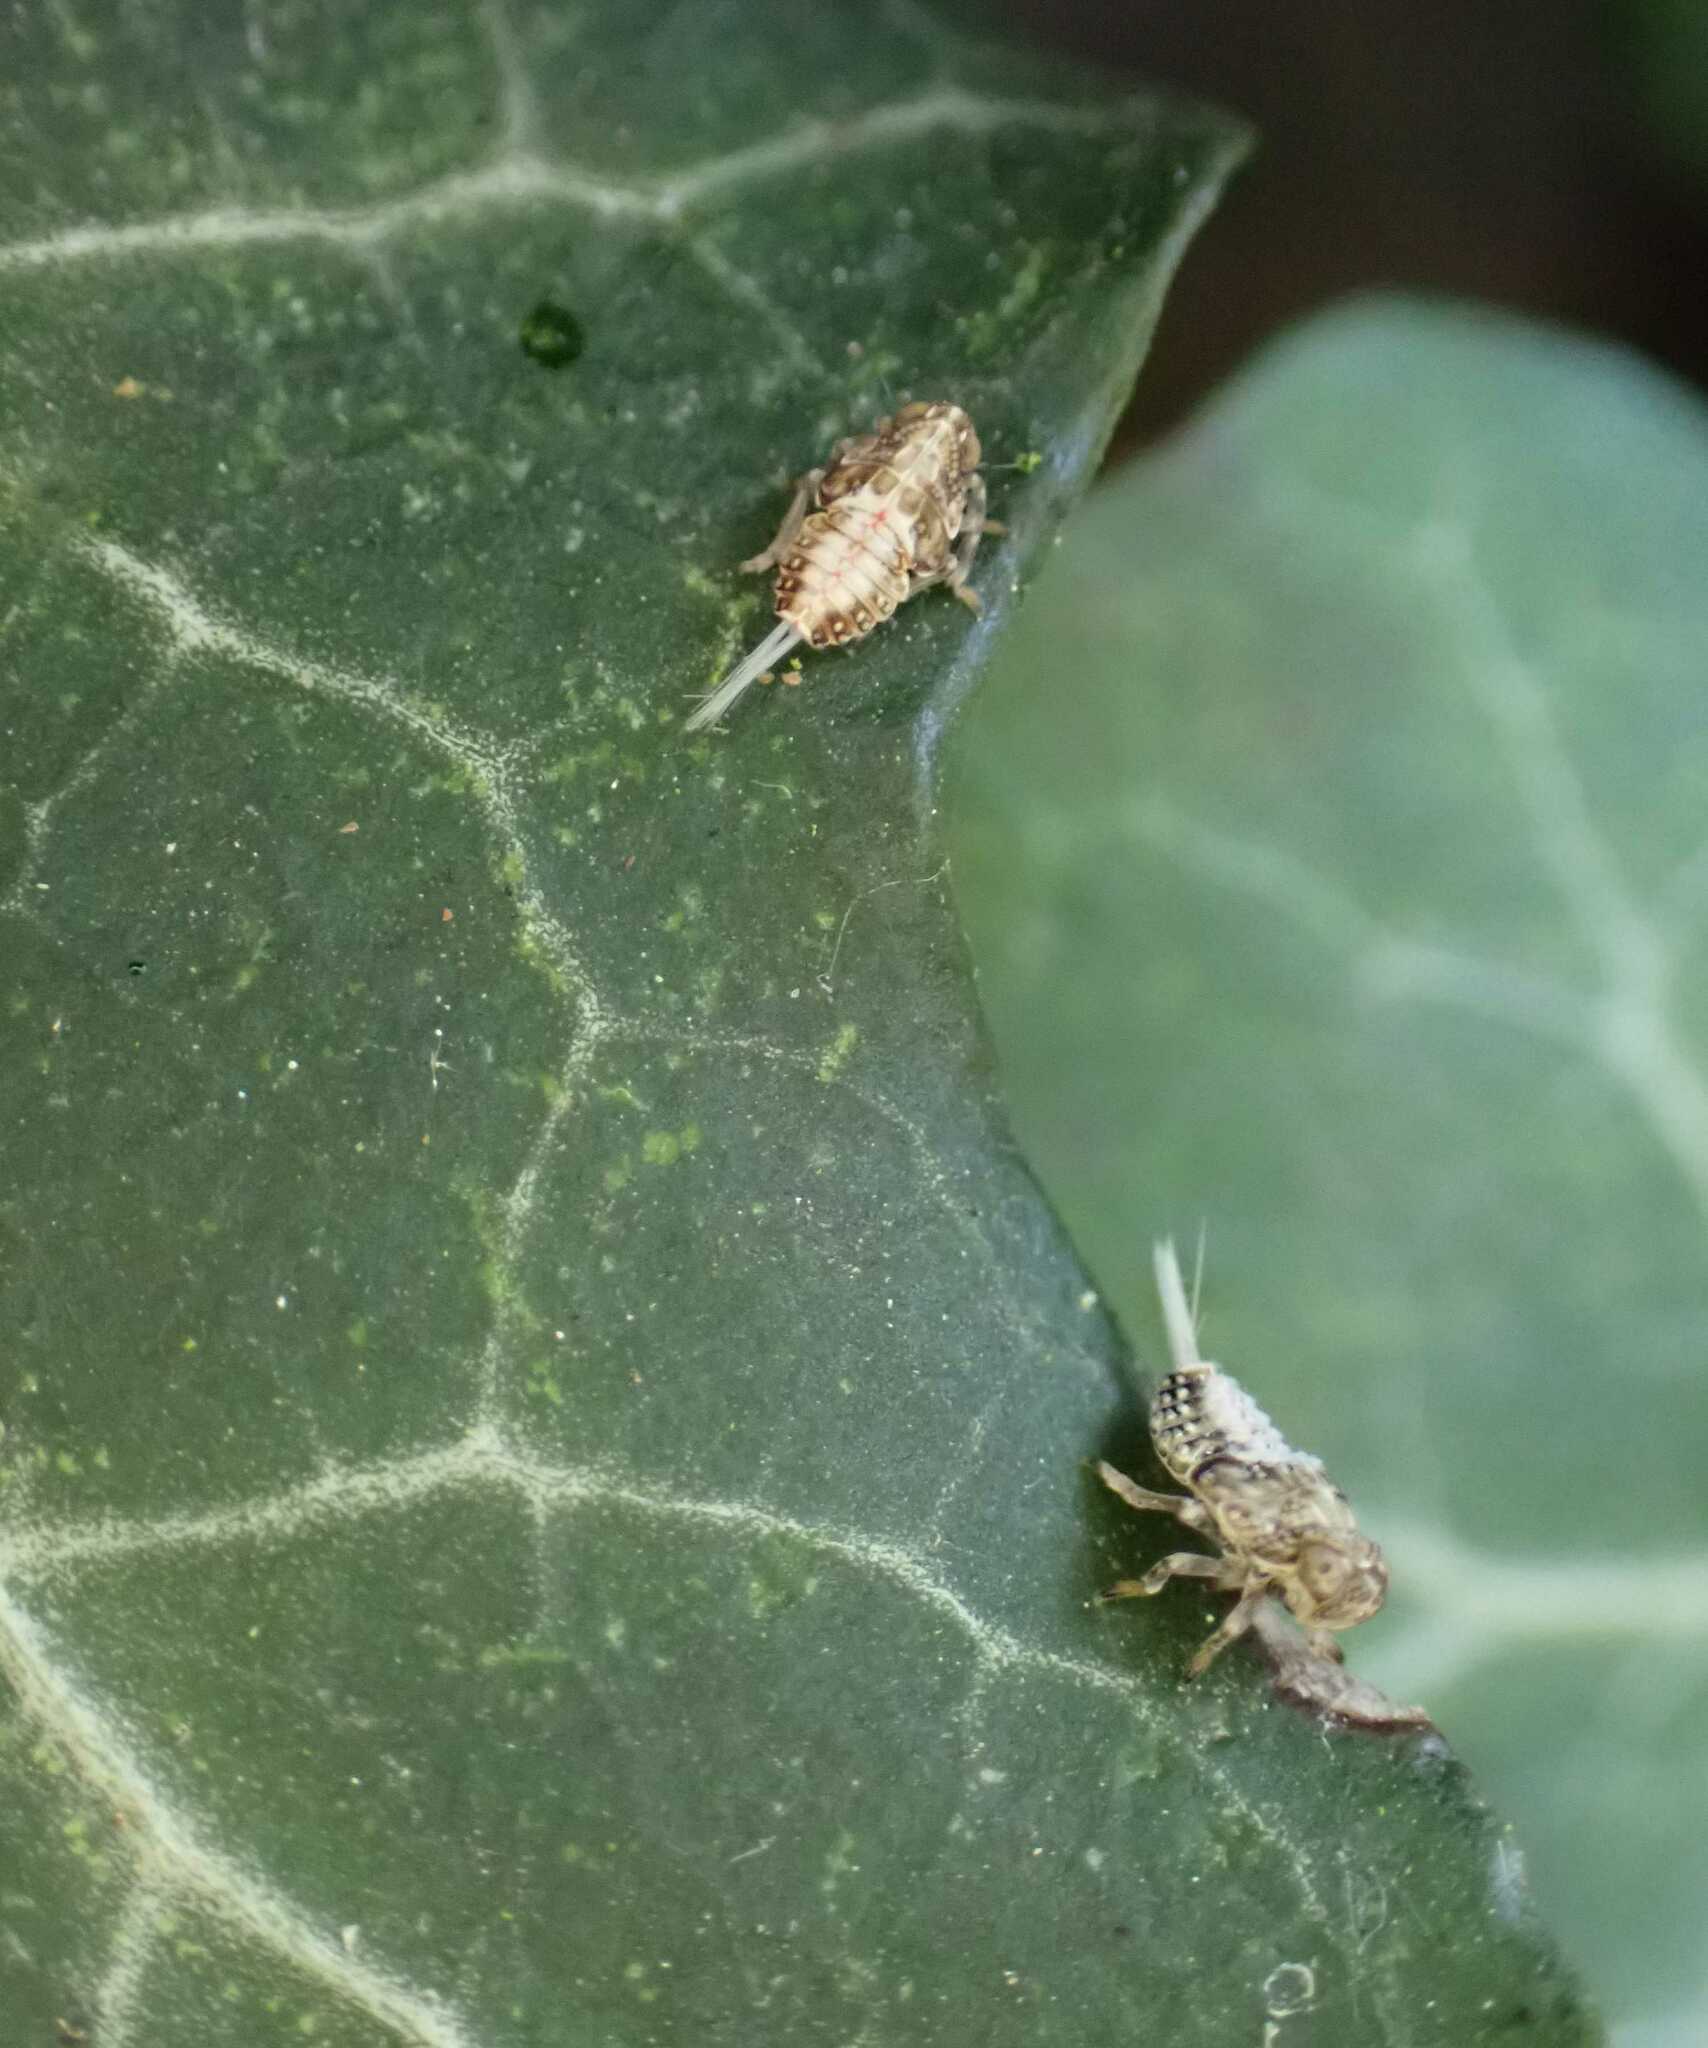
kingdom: Animalia
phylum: Arthropoda
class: Insecta
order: Hemiptera
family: Issidae
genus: Issus
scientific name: Issus
